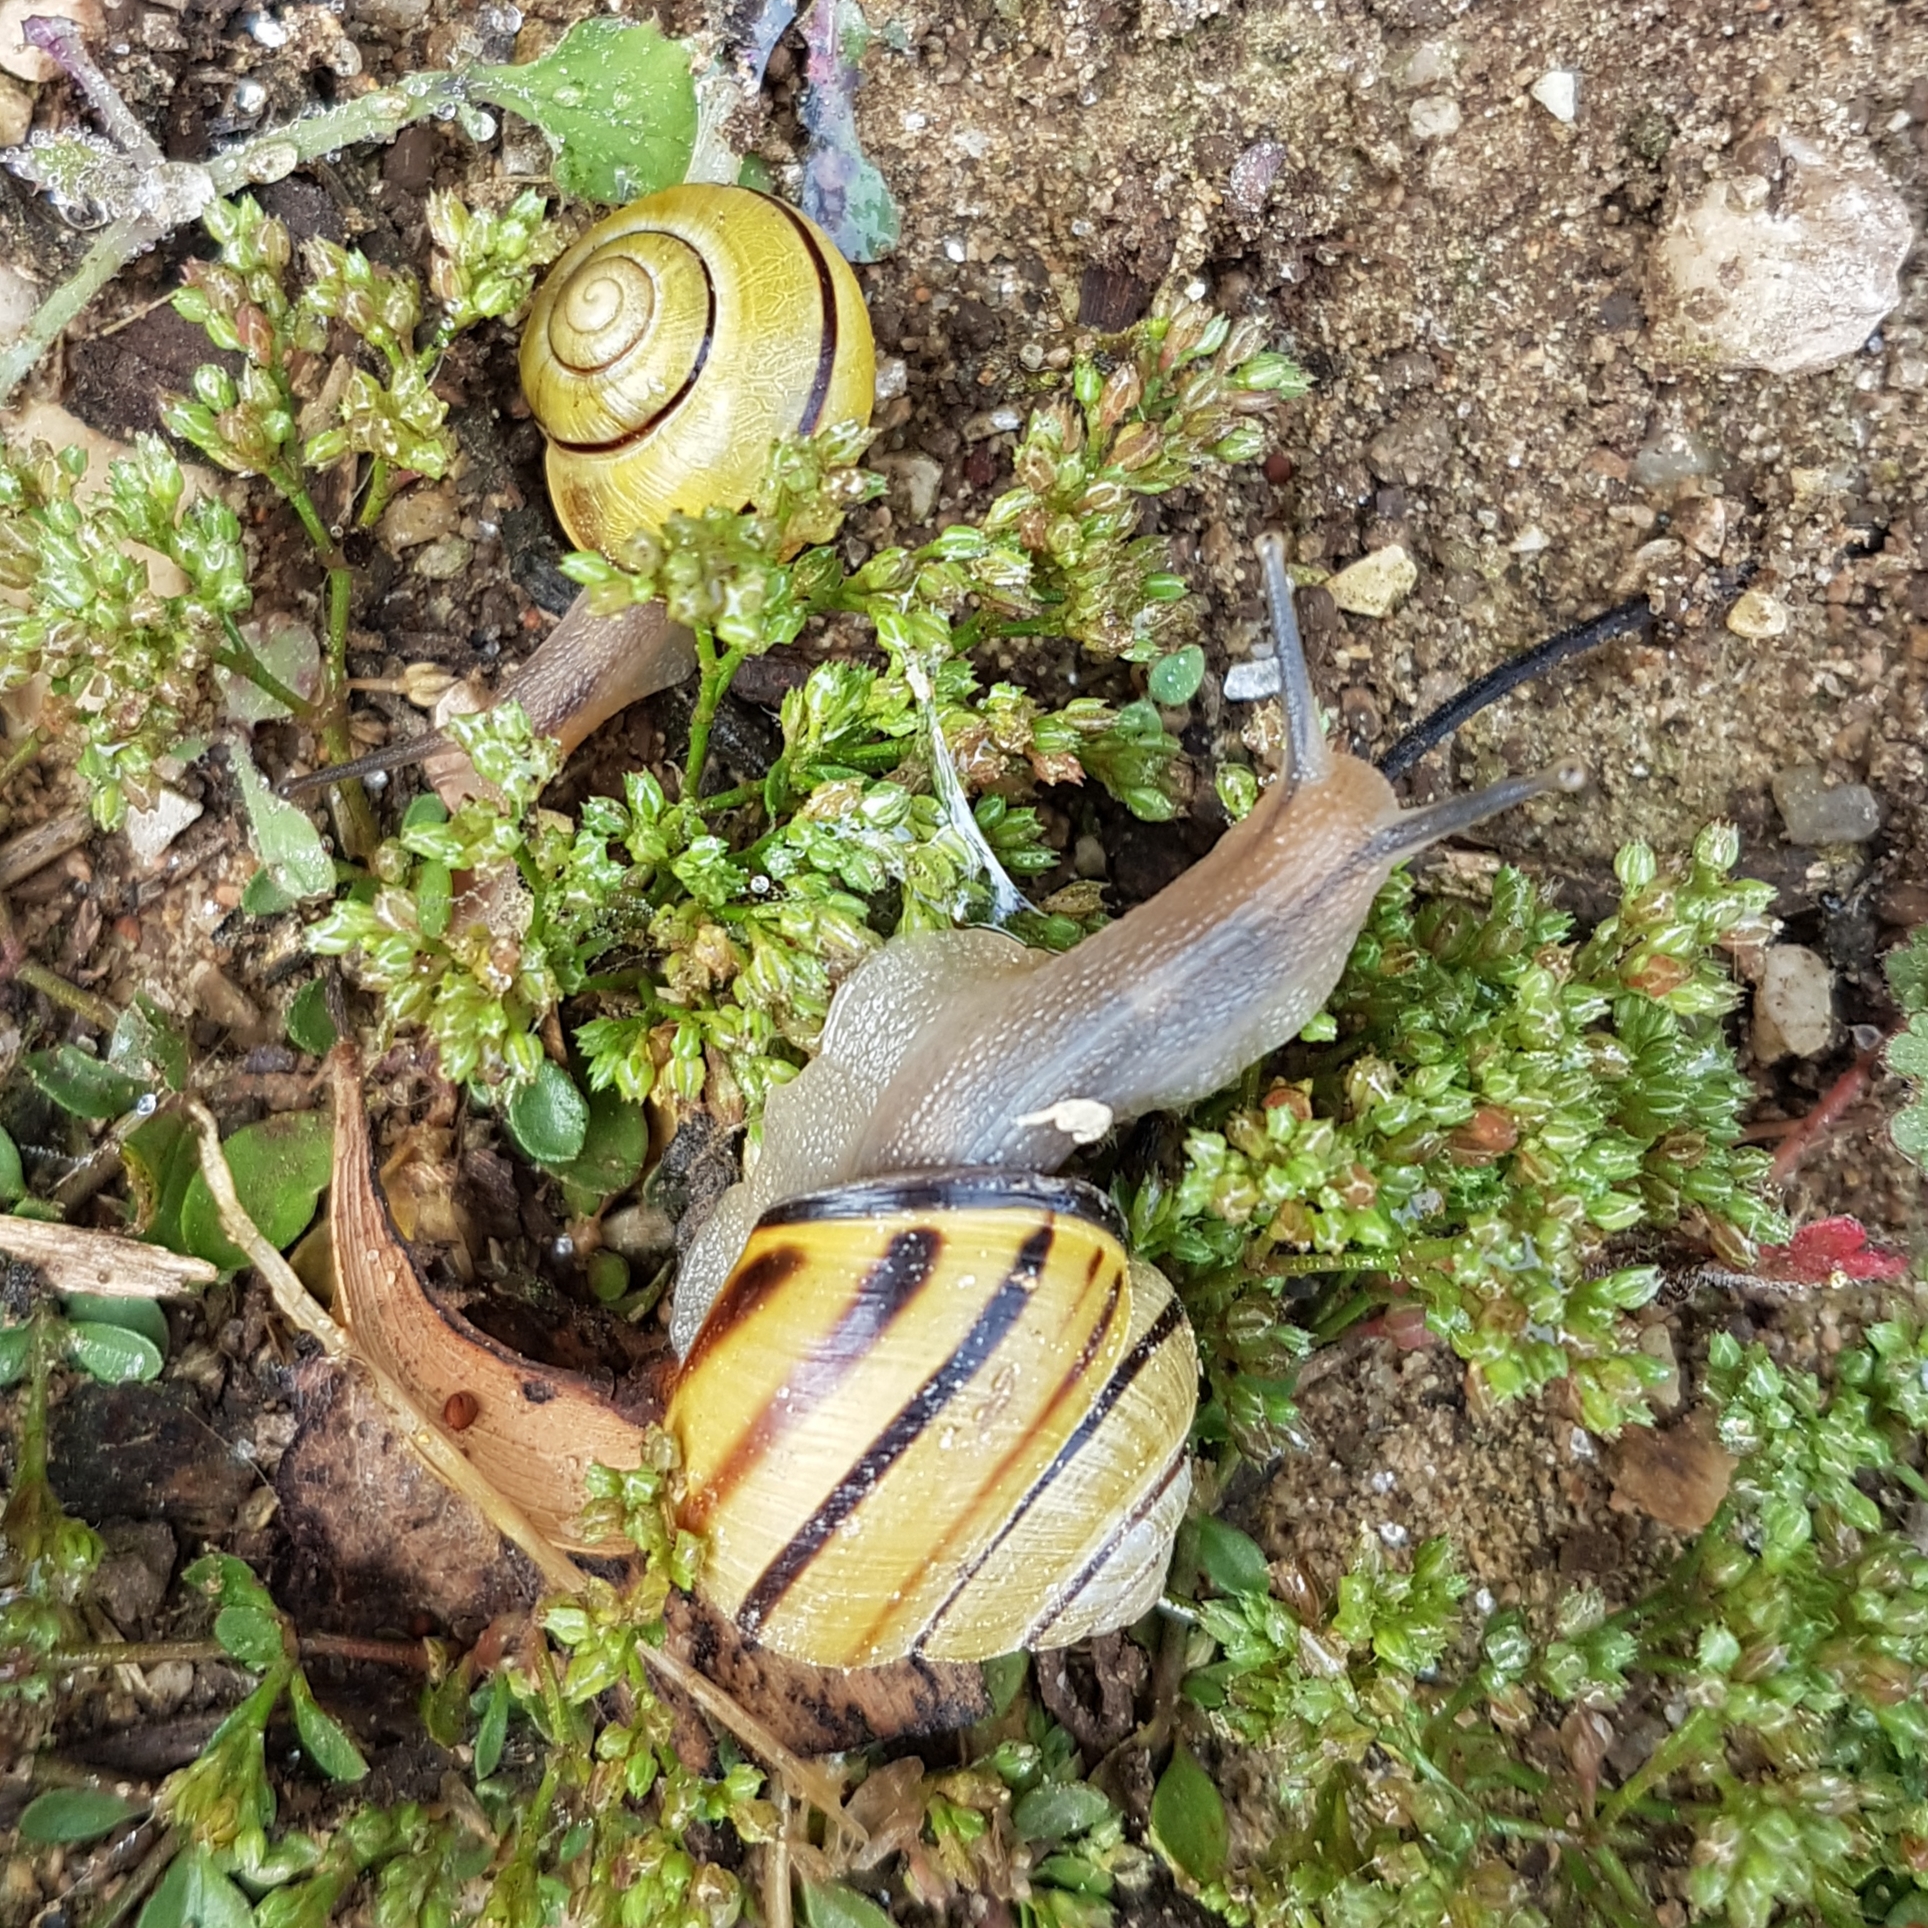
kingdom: Animalia
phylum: Mollusca
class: Gastropoda
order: Stylommatophora
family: Helicidae
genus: Cepaea
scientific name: Cepaea nemoralis
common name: Grovesnail
